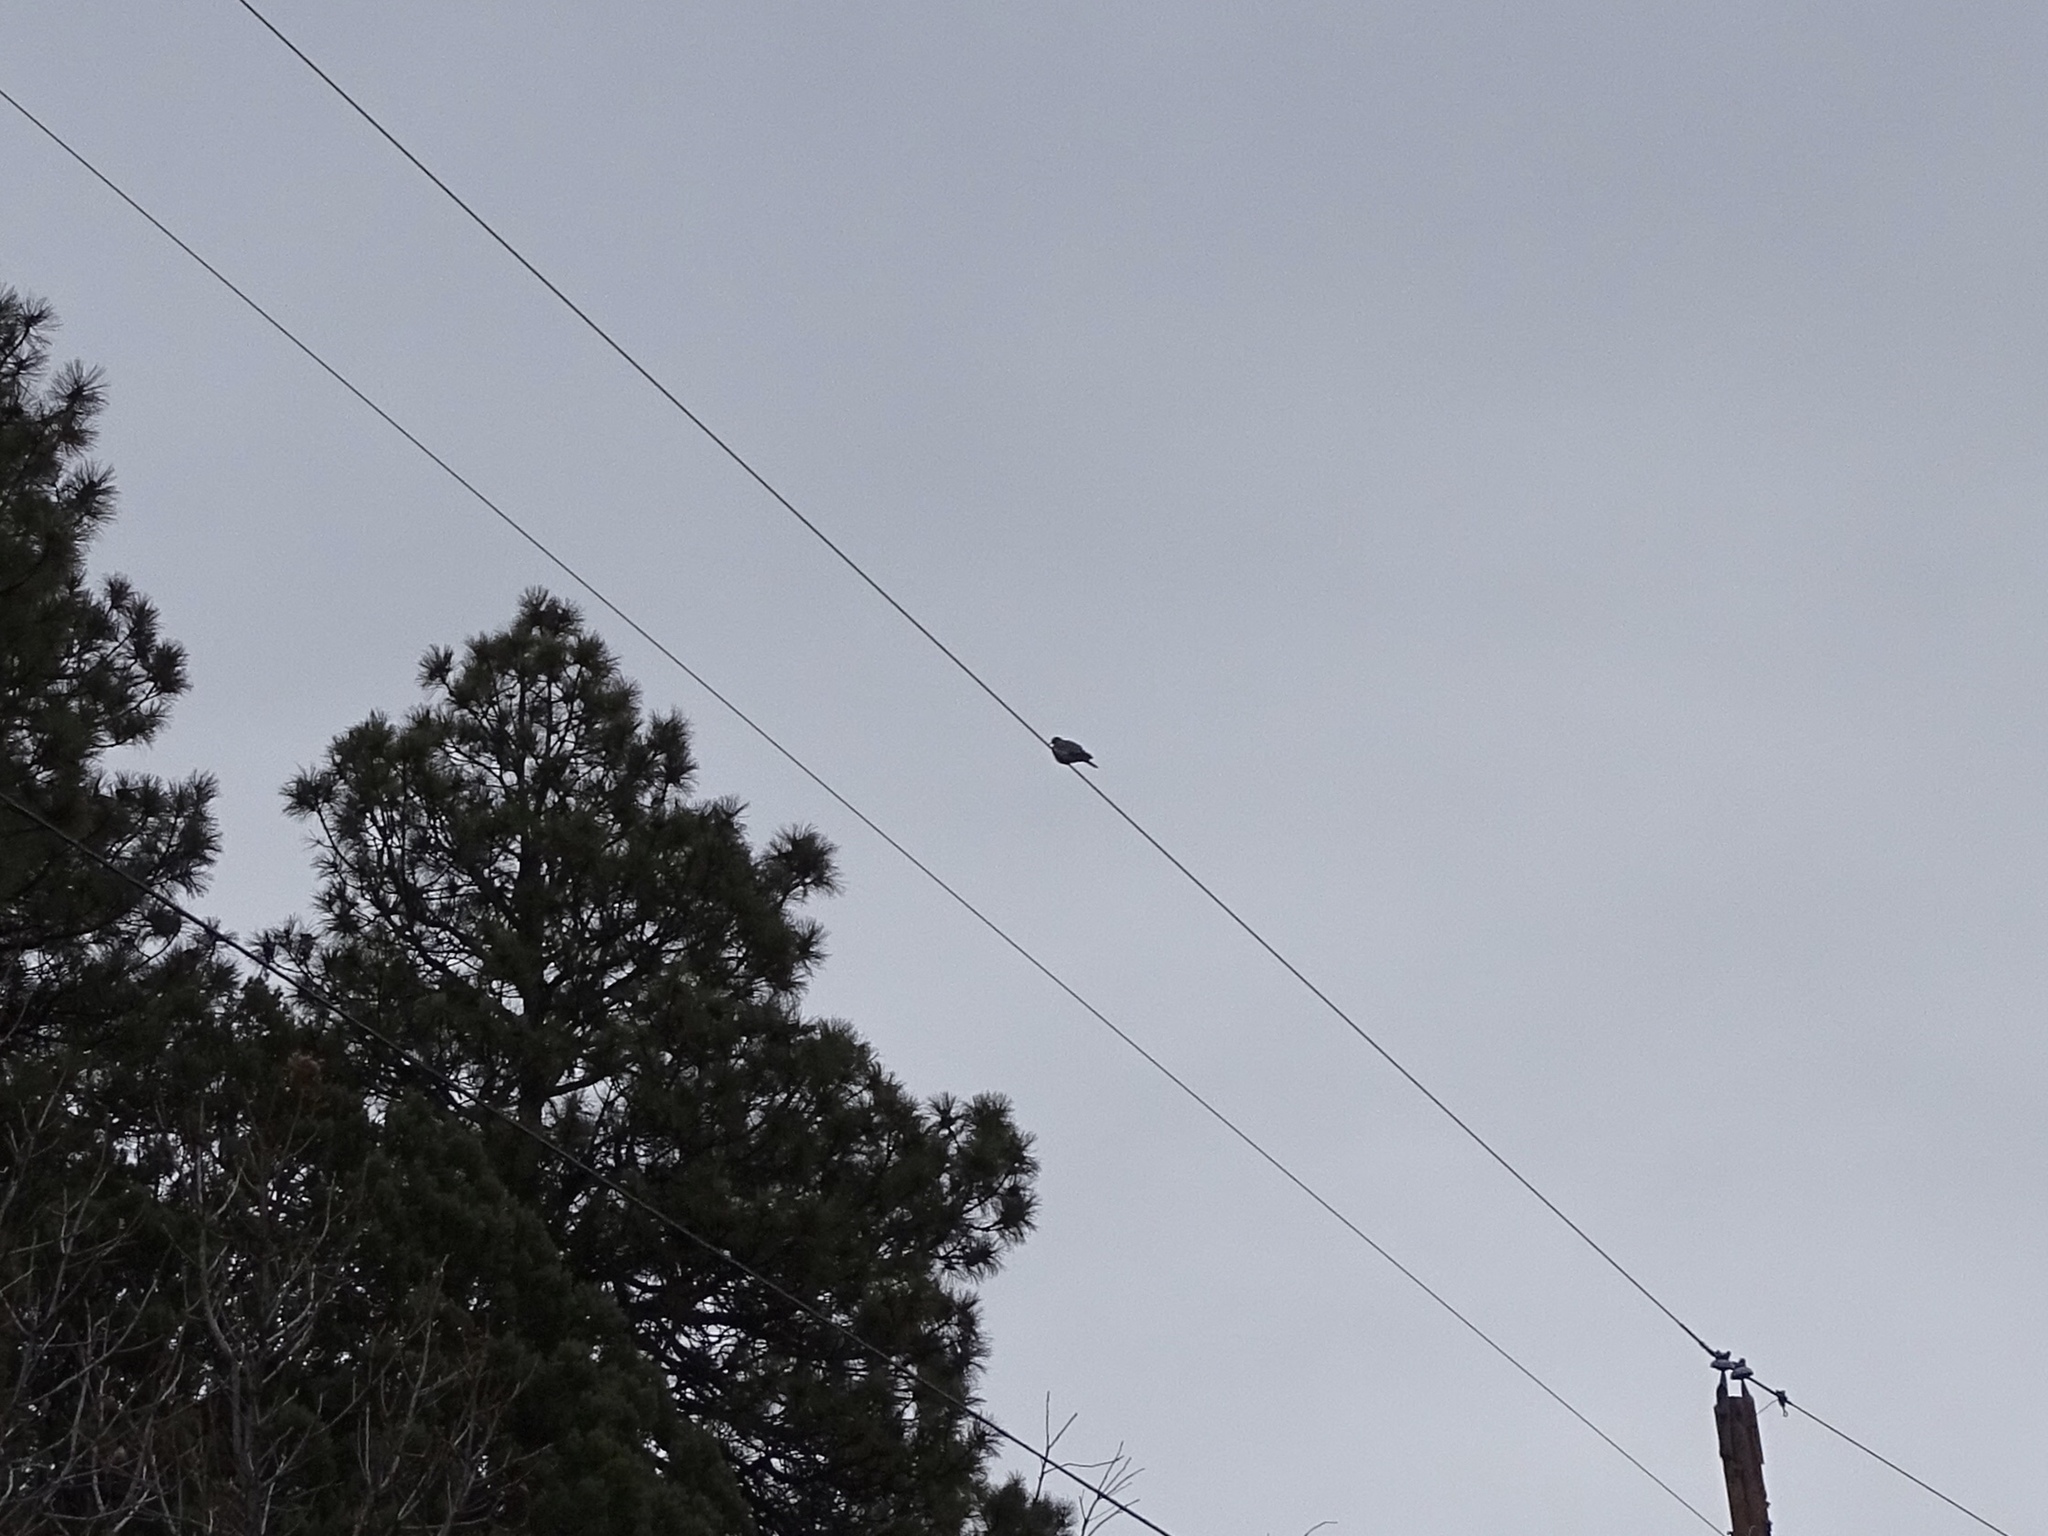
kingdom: Animalia
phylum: Chordata
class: Aves
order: Columbiformes
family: Columbidae
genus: Zenaida
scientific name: Zenaida asiatica
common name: White-winged dove
